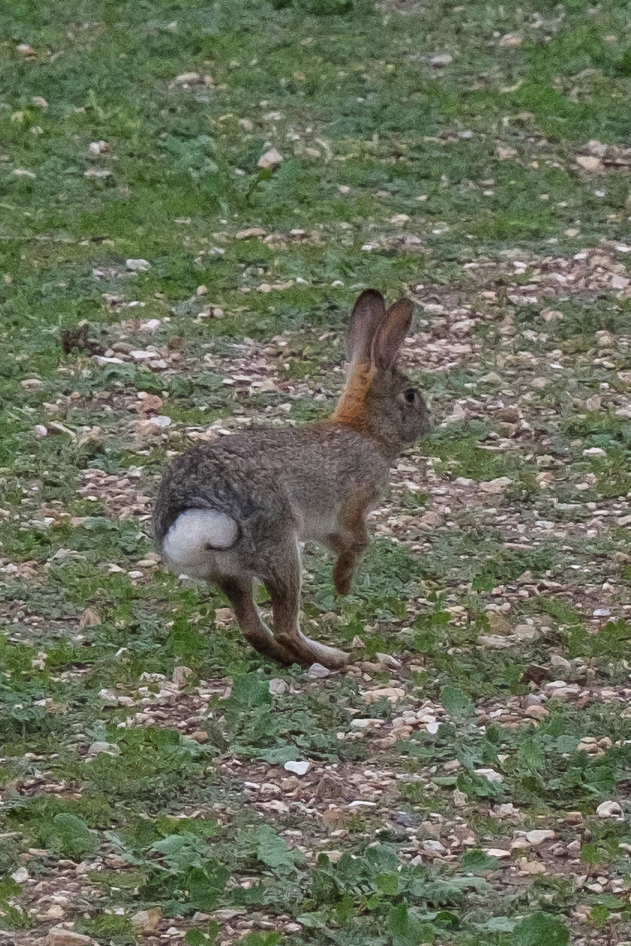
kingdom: Animalia
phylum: Chordata
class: Mammalia
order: Lagomorpha
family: Leporidae
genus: Sylvilagus
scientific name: Sylvilagus audubonii
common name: Desert cottontail
